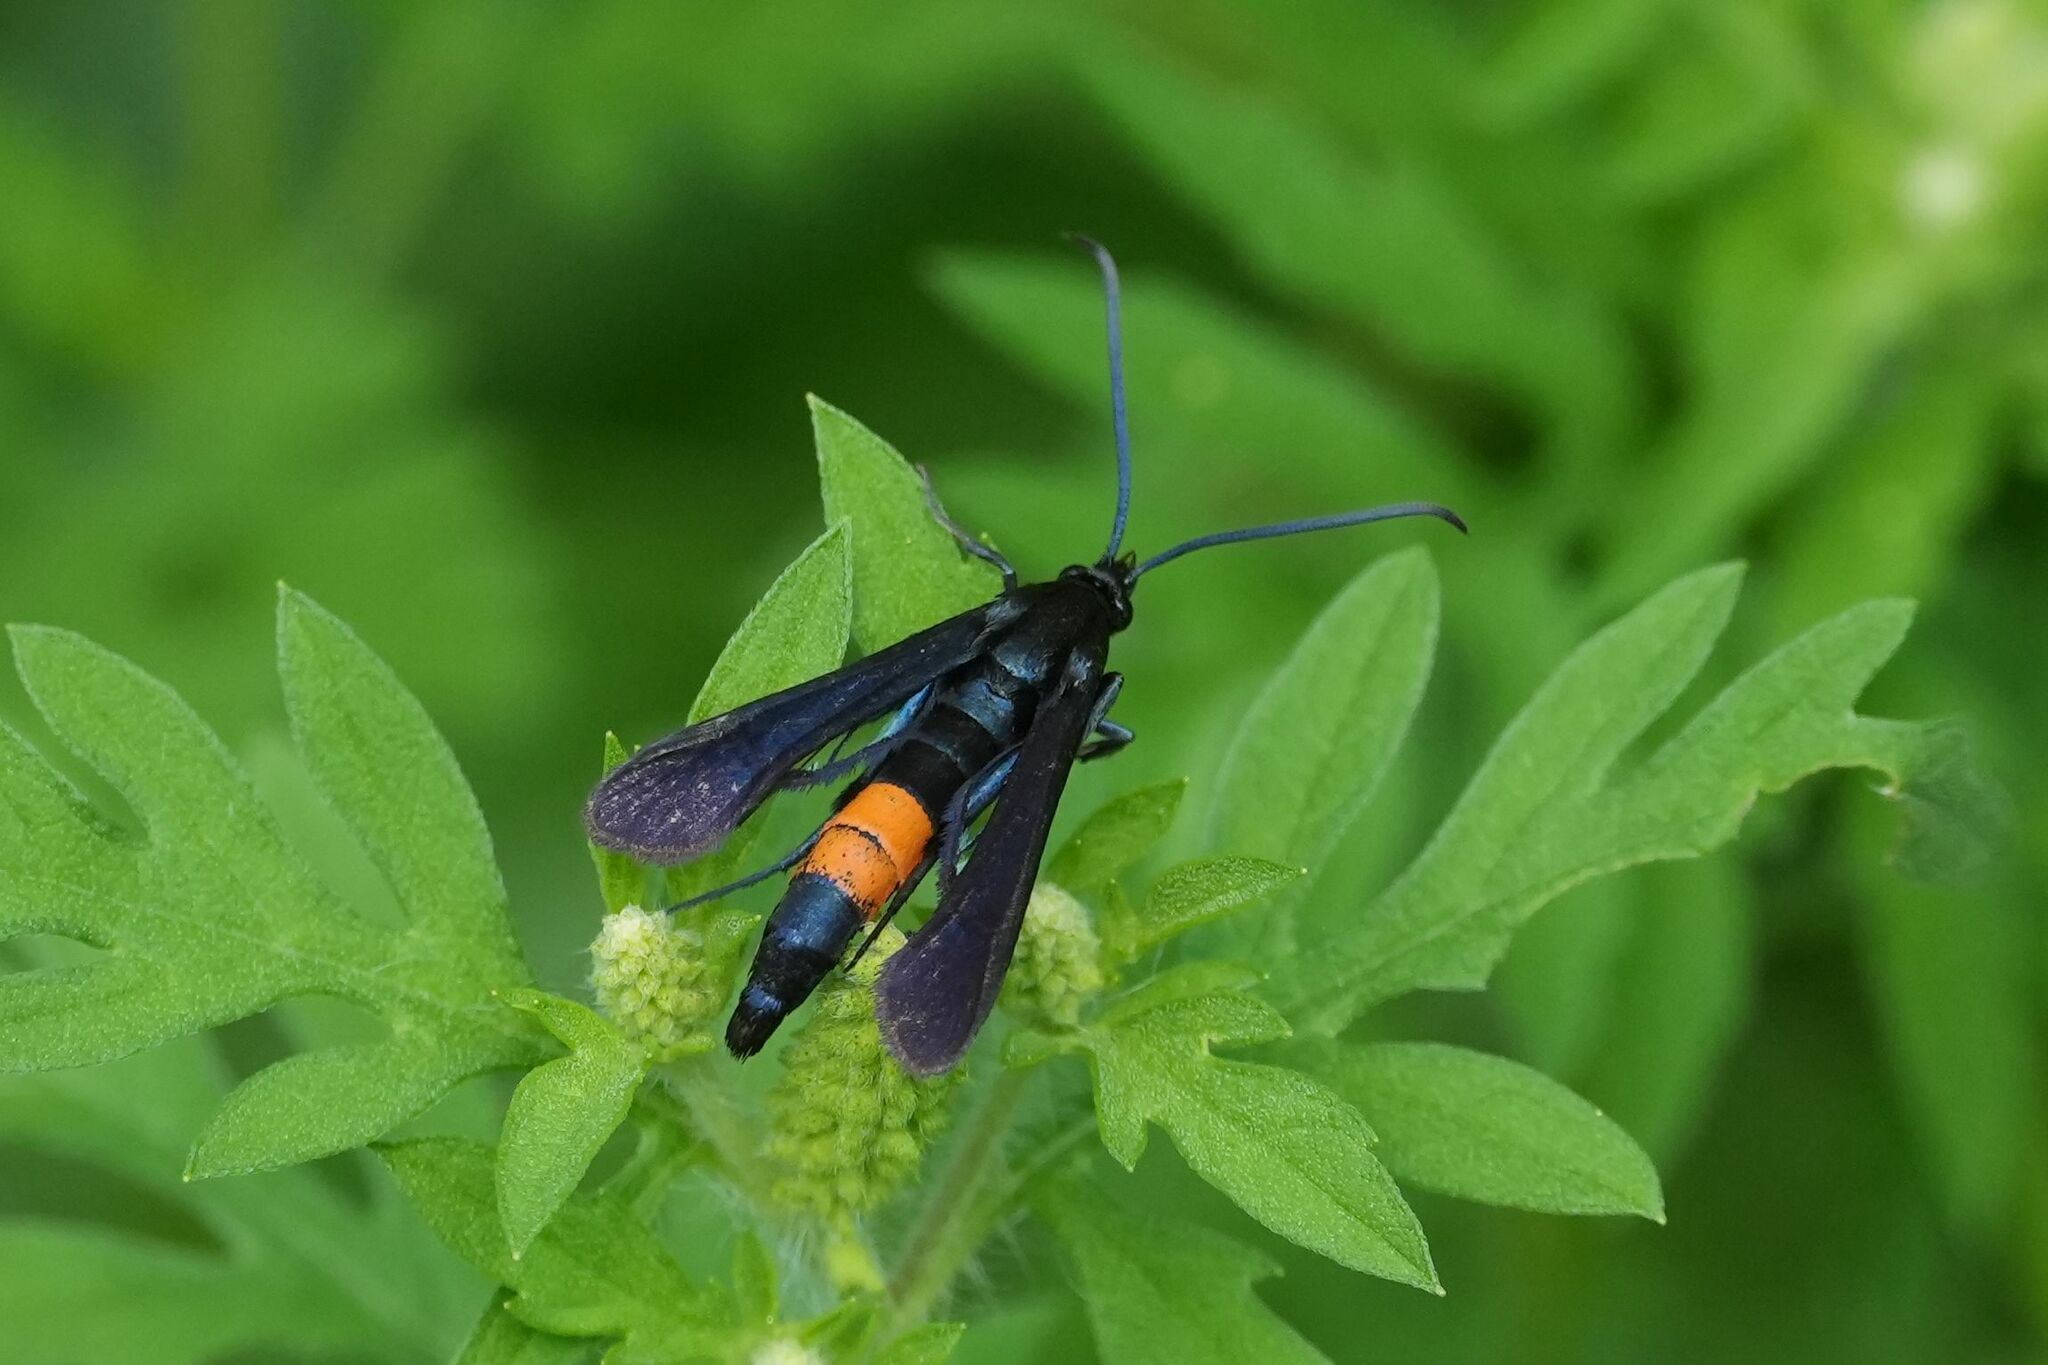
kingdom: Animalia
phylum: Arthropoda
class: Insecta
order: Lepidoptera
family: Sesiidae
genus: Synanthedon
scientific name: Synanthedon exitiosa
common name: Peachtree borer moth
